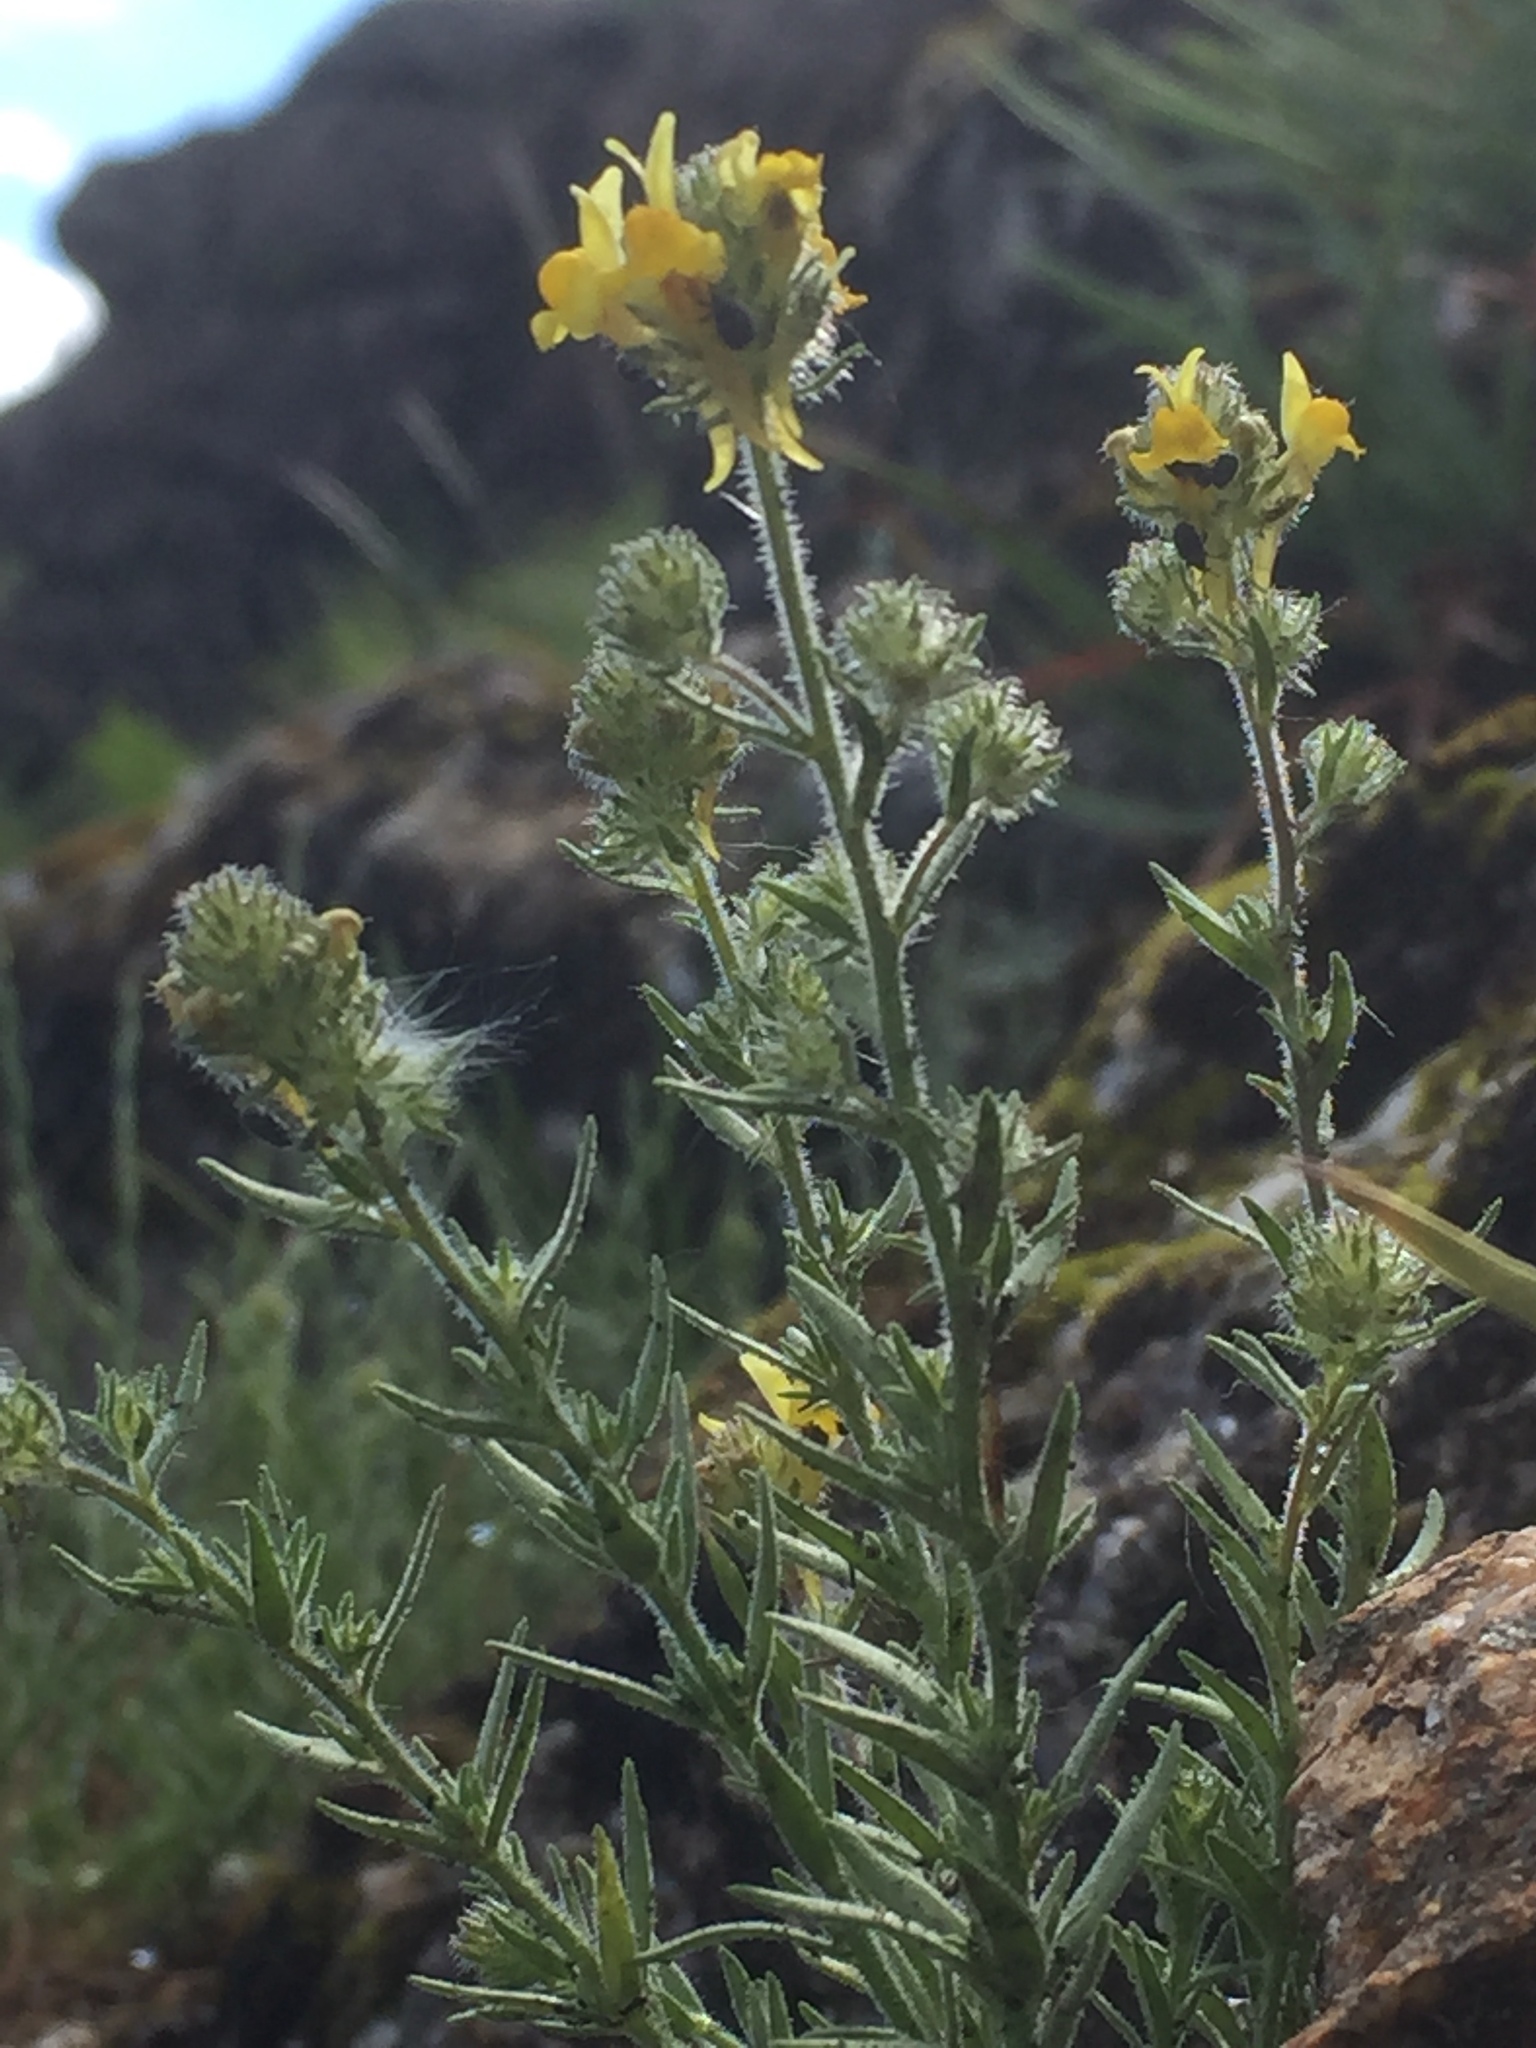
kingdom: Plantae
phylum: Tracheophyta
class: Magnoliopsida
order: Lamiales
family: Plantaginaceae
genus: Linaria
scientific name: Linaria saxatilis
